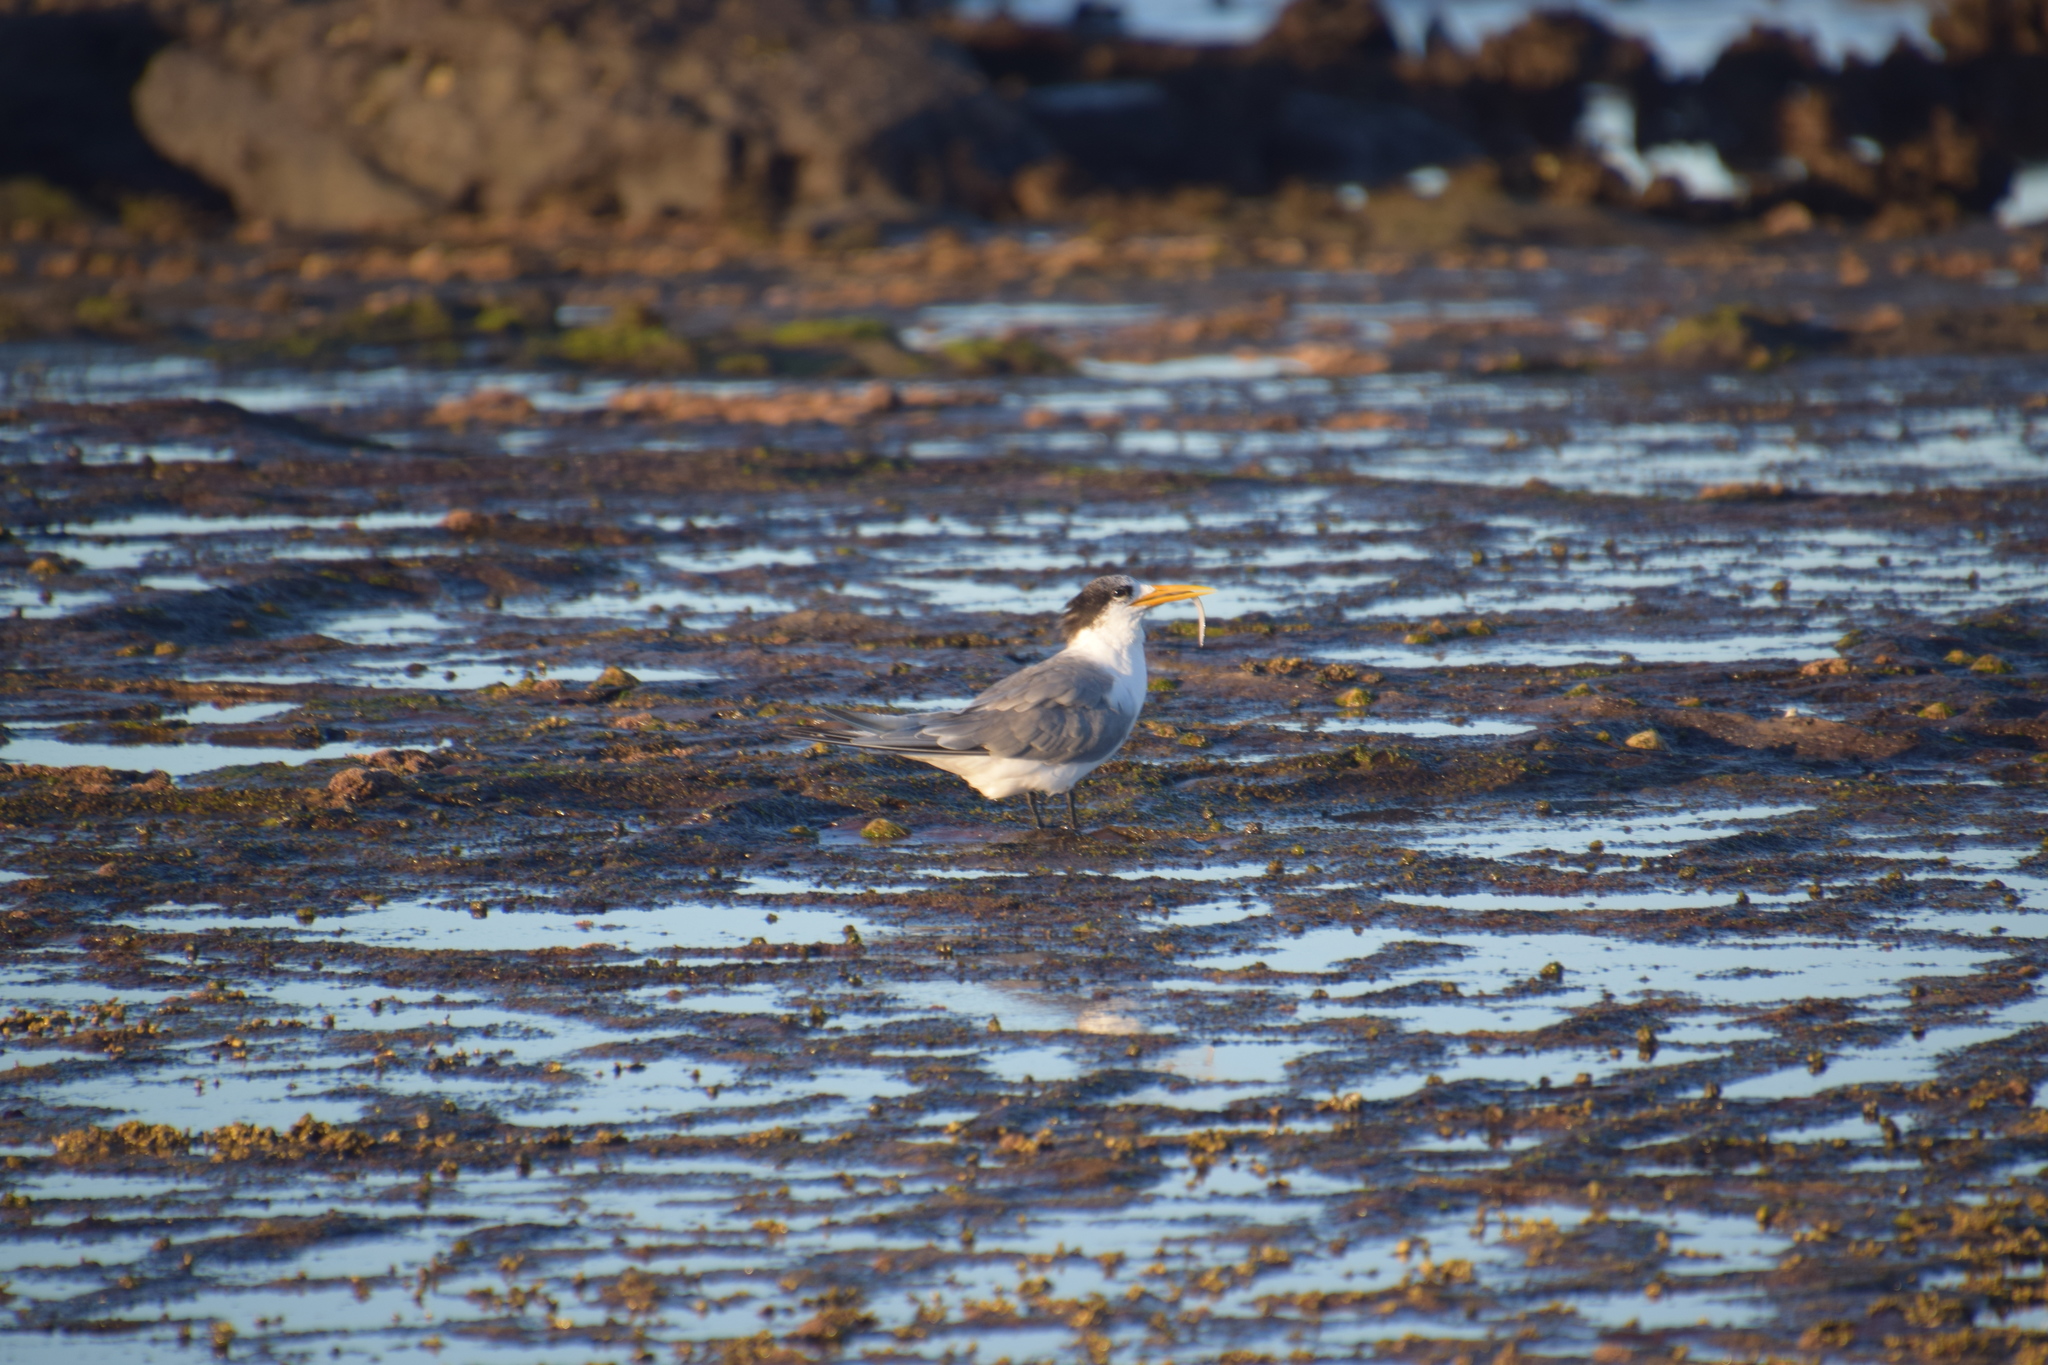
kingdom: Animalia
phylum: Chordata
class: Aves
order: Charadriiformes
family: Laridae
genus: Thalasseus
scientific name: Thalasseus bergii
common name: Greater crested tern
